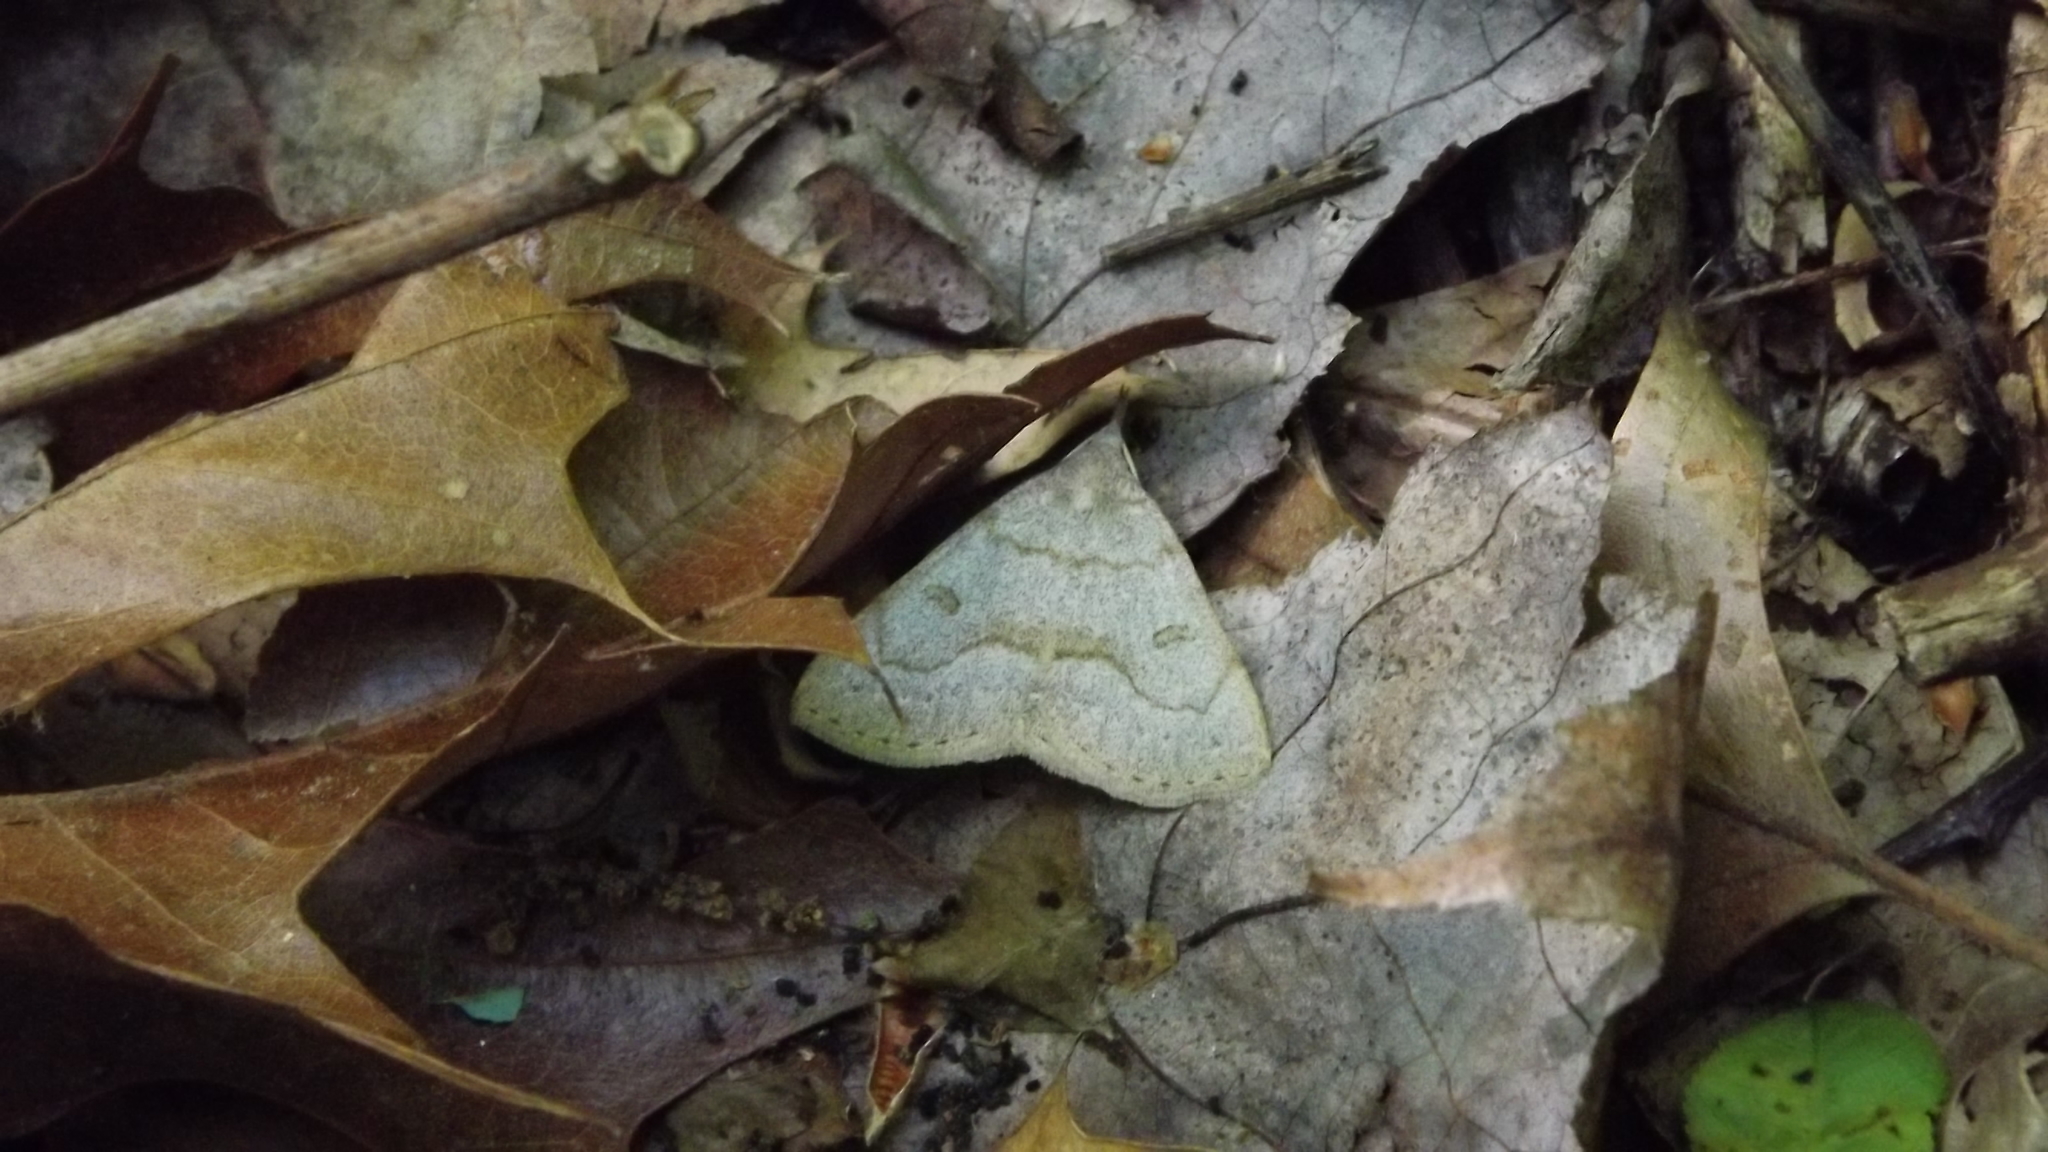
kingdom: Animalia
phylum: Arthropoda
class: Insecta
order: Lepidoptera
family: Erebidae
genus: Macrochilo
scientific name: Macrochilo morbidalis
